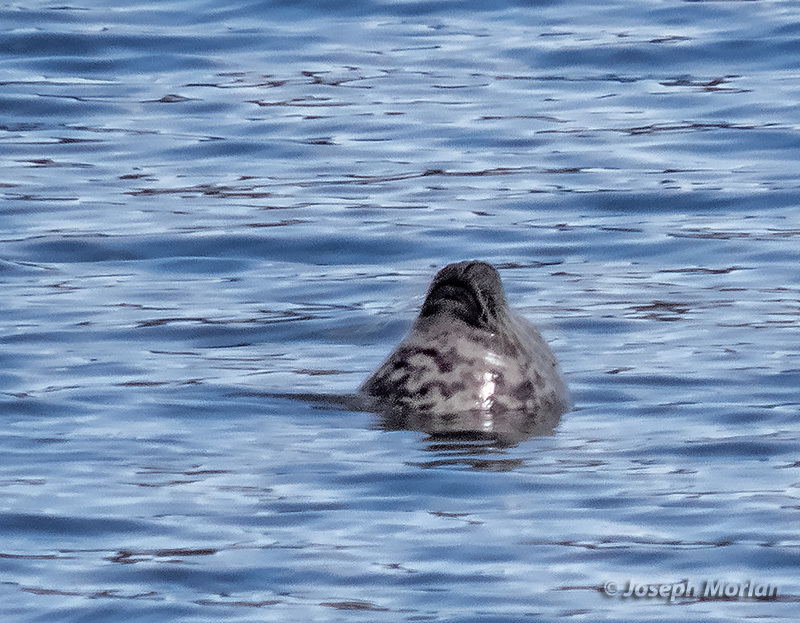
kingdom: Animalia
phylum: Chordata
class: Mammalia
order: Carnivora
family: Phocidae
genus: Phoca
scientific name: Phoca vitulina
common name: Harbor seal
